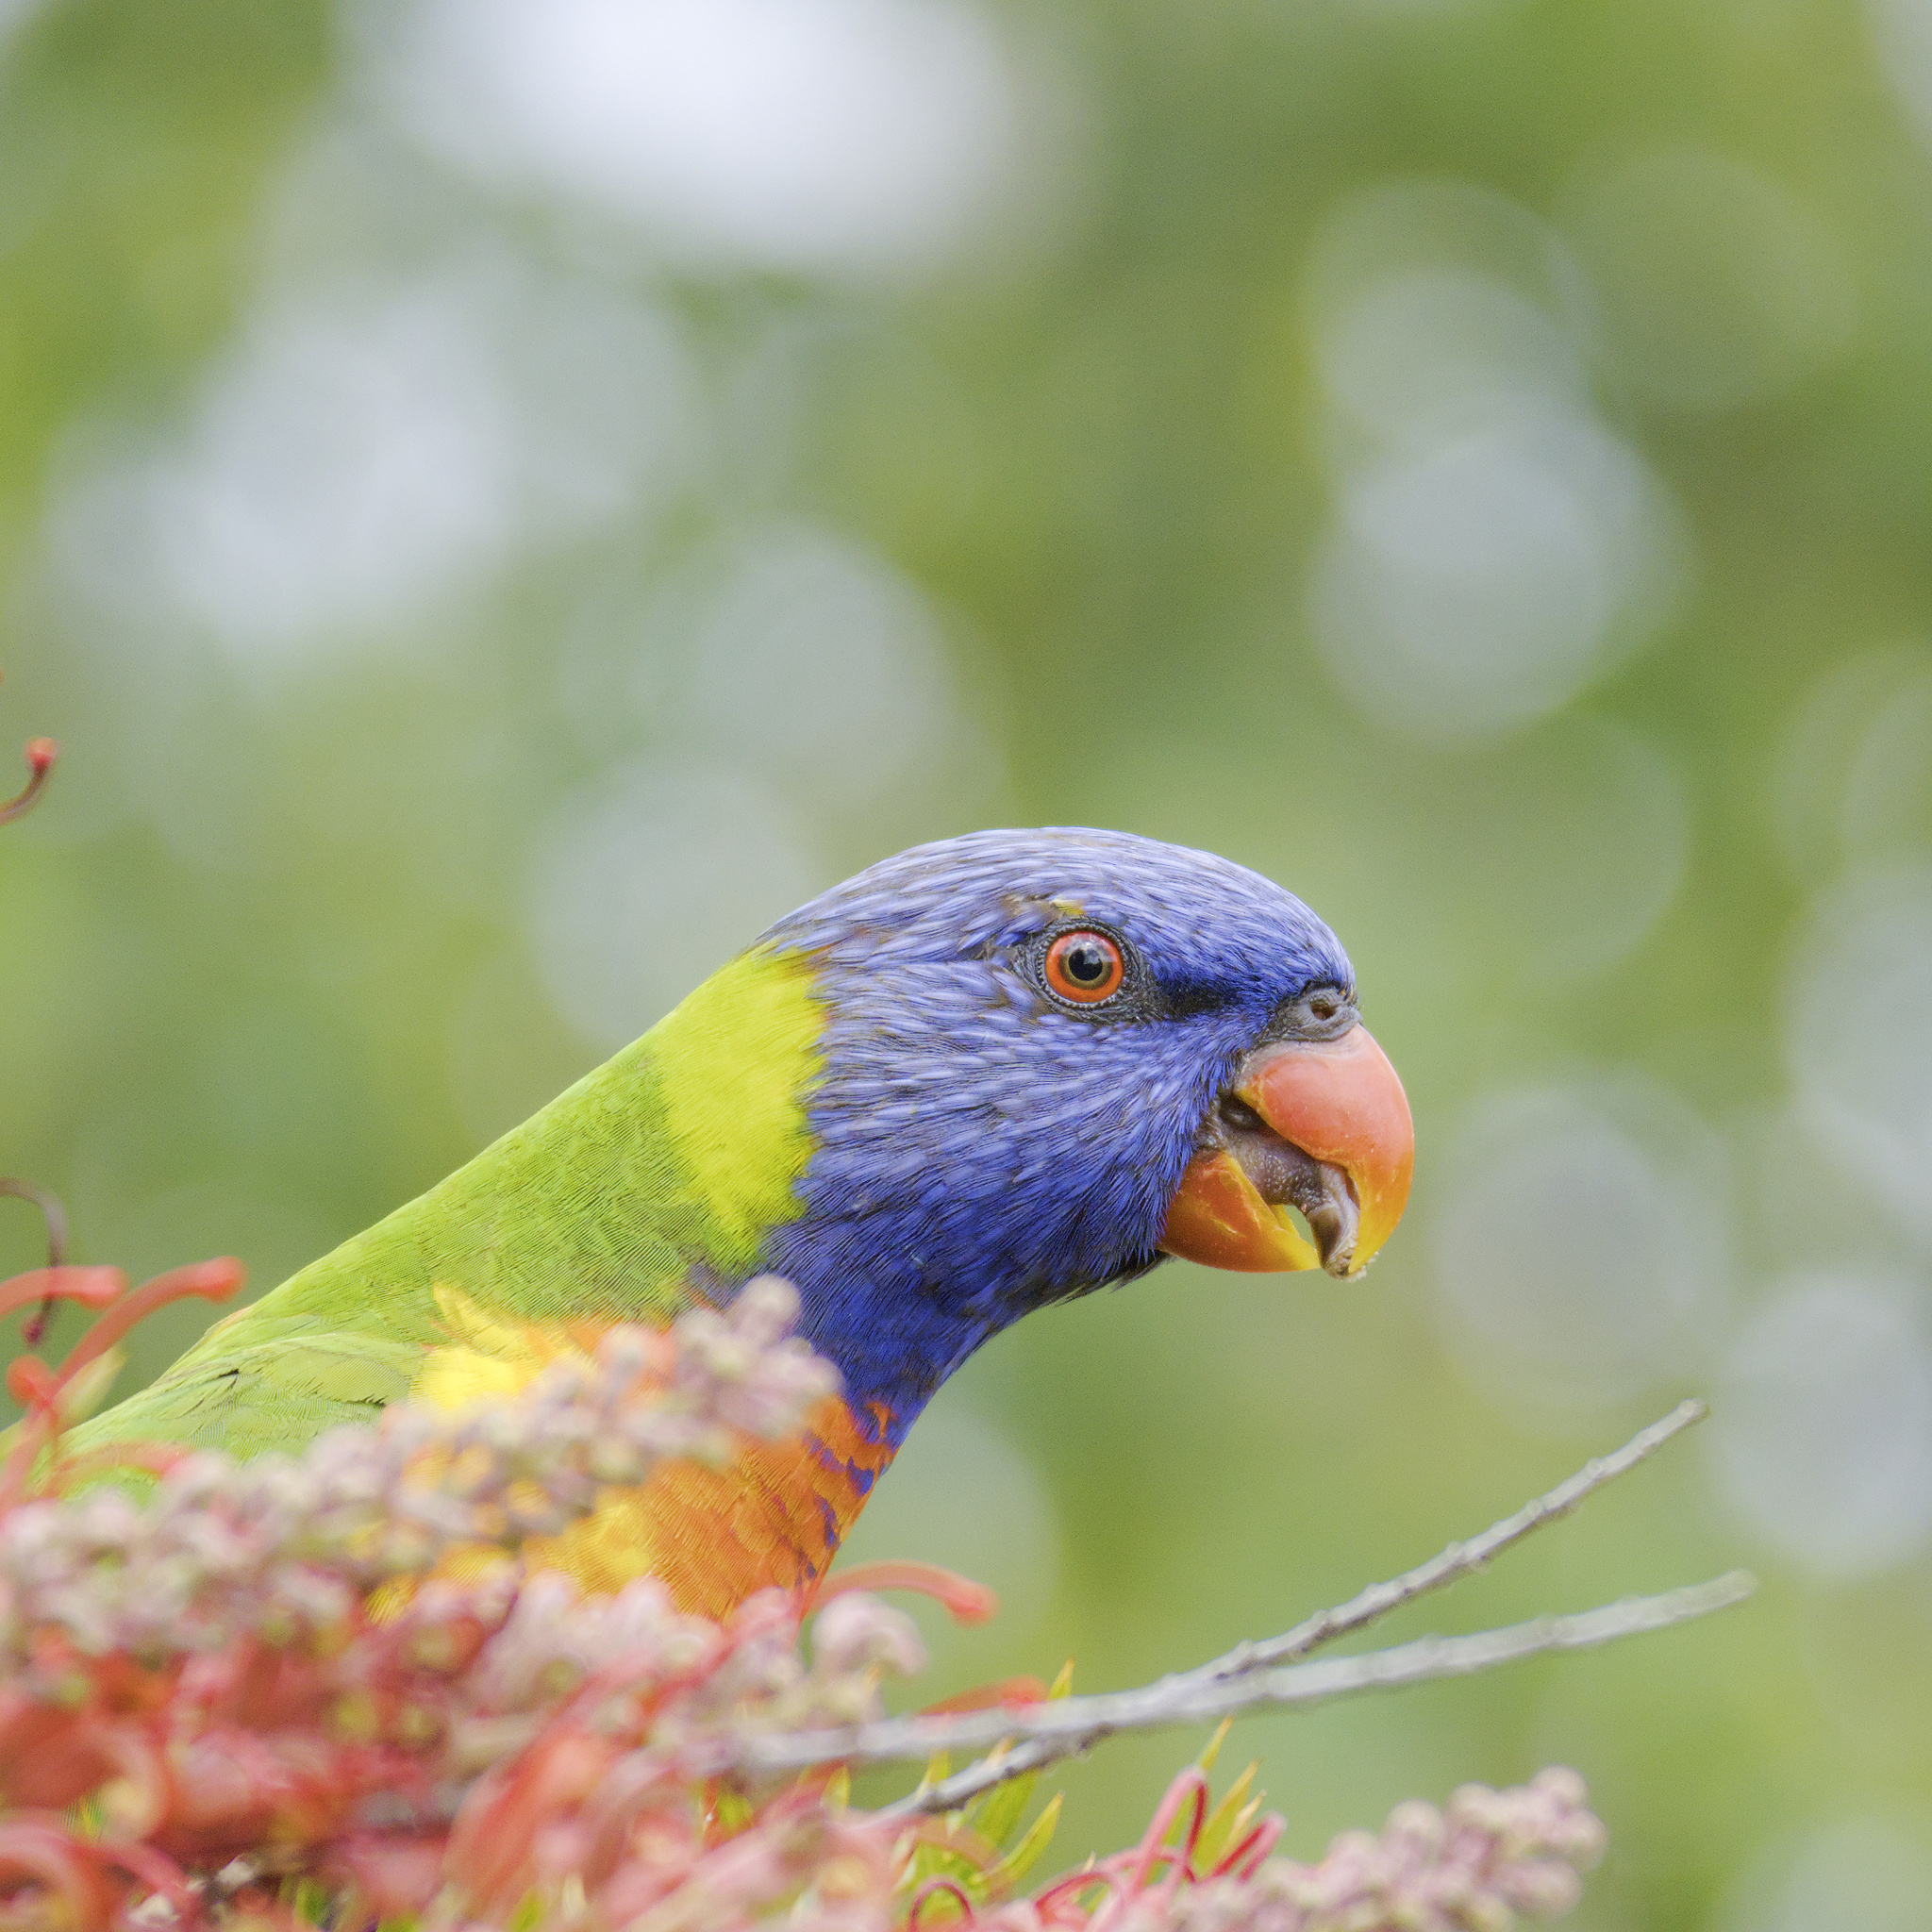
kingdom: Animalia
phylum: Chordata
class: Aves
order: Psittaciformes
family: Psittacidae
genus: Trichoglossus
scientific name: Trichoglossus haematodus
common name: Coconut lorikeet
